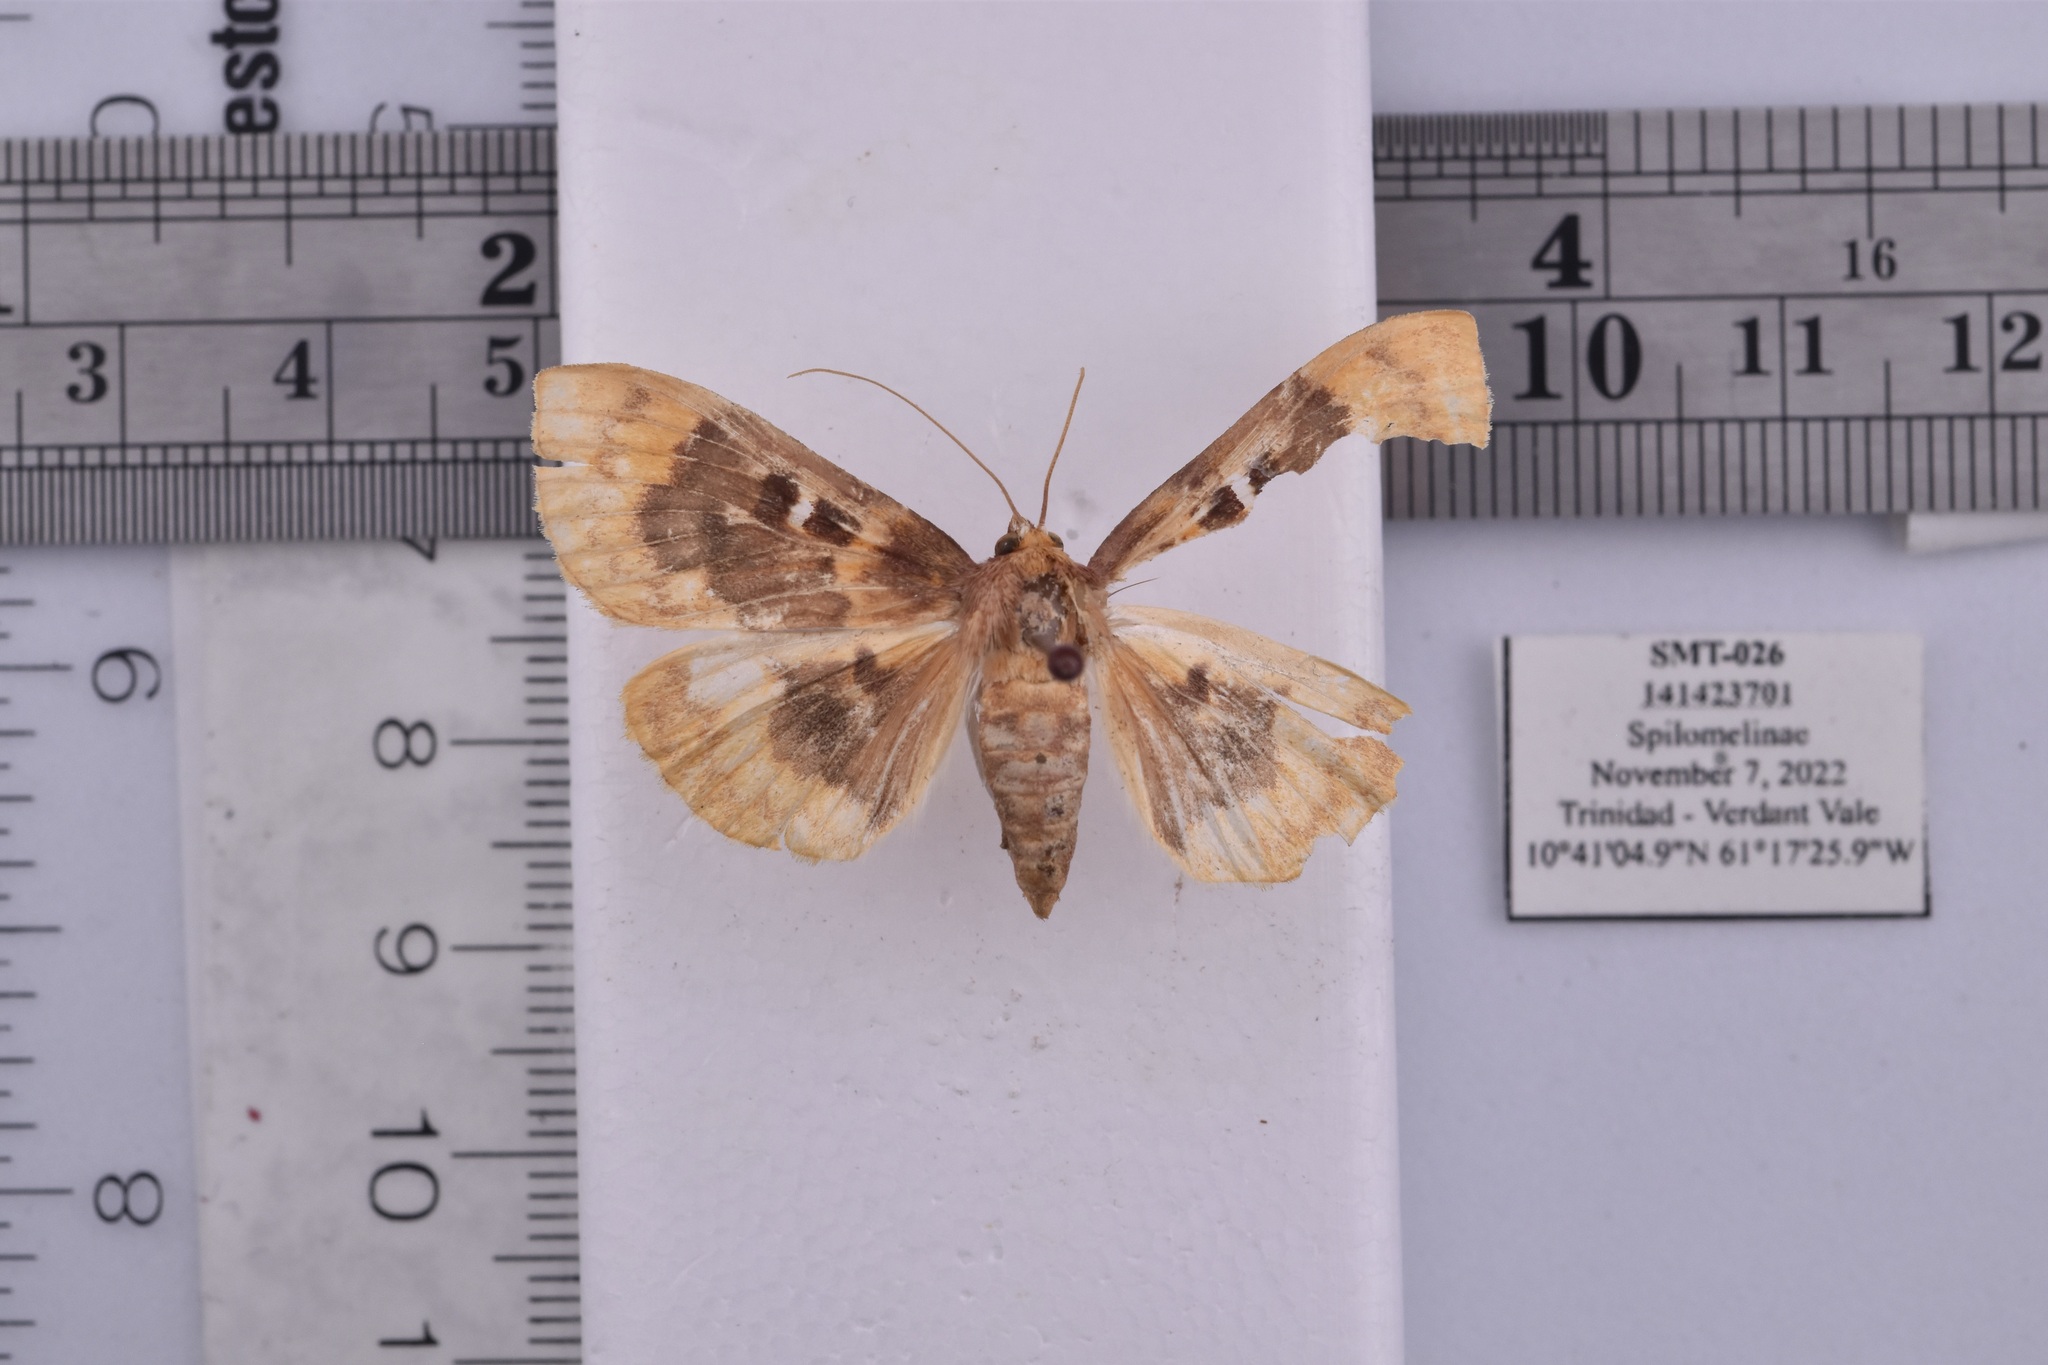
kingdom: Animalia
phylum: Arthropoda
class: Insecta
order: Lepidoptera
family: Crambidae
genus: Polygrammodes
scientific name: Polygrammodes multifenestrata
